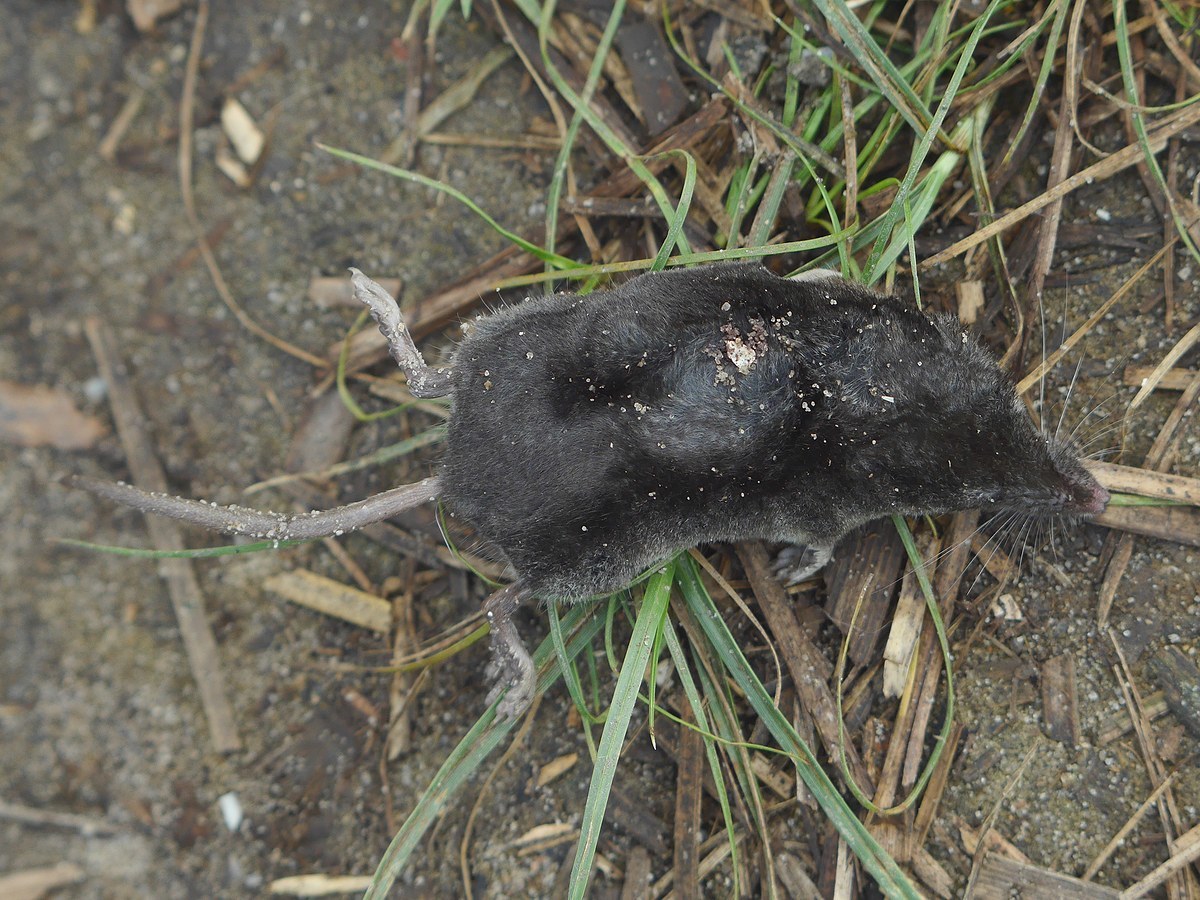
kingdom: Animalia
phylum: Chordata
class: Mammalia
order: Soricomorpha
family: Soricidae
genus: Neomys
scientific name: Neomys milleri
